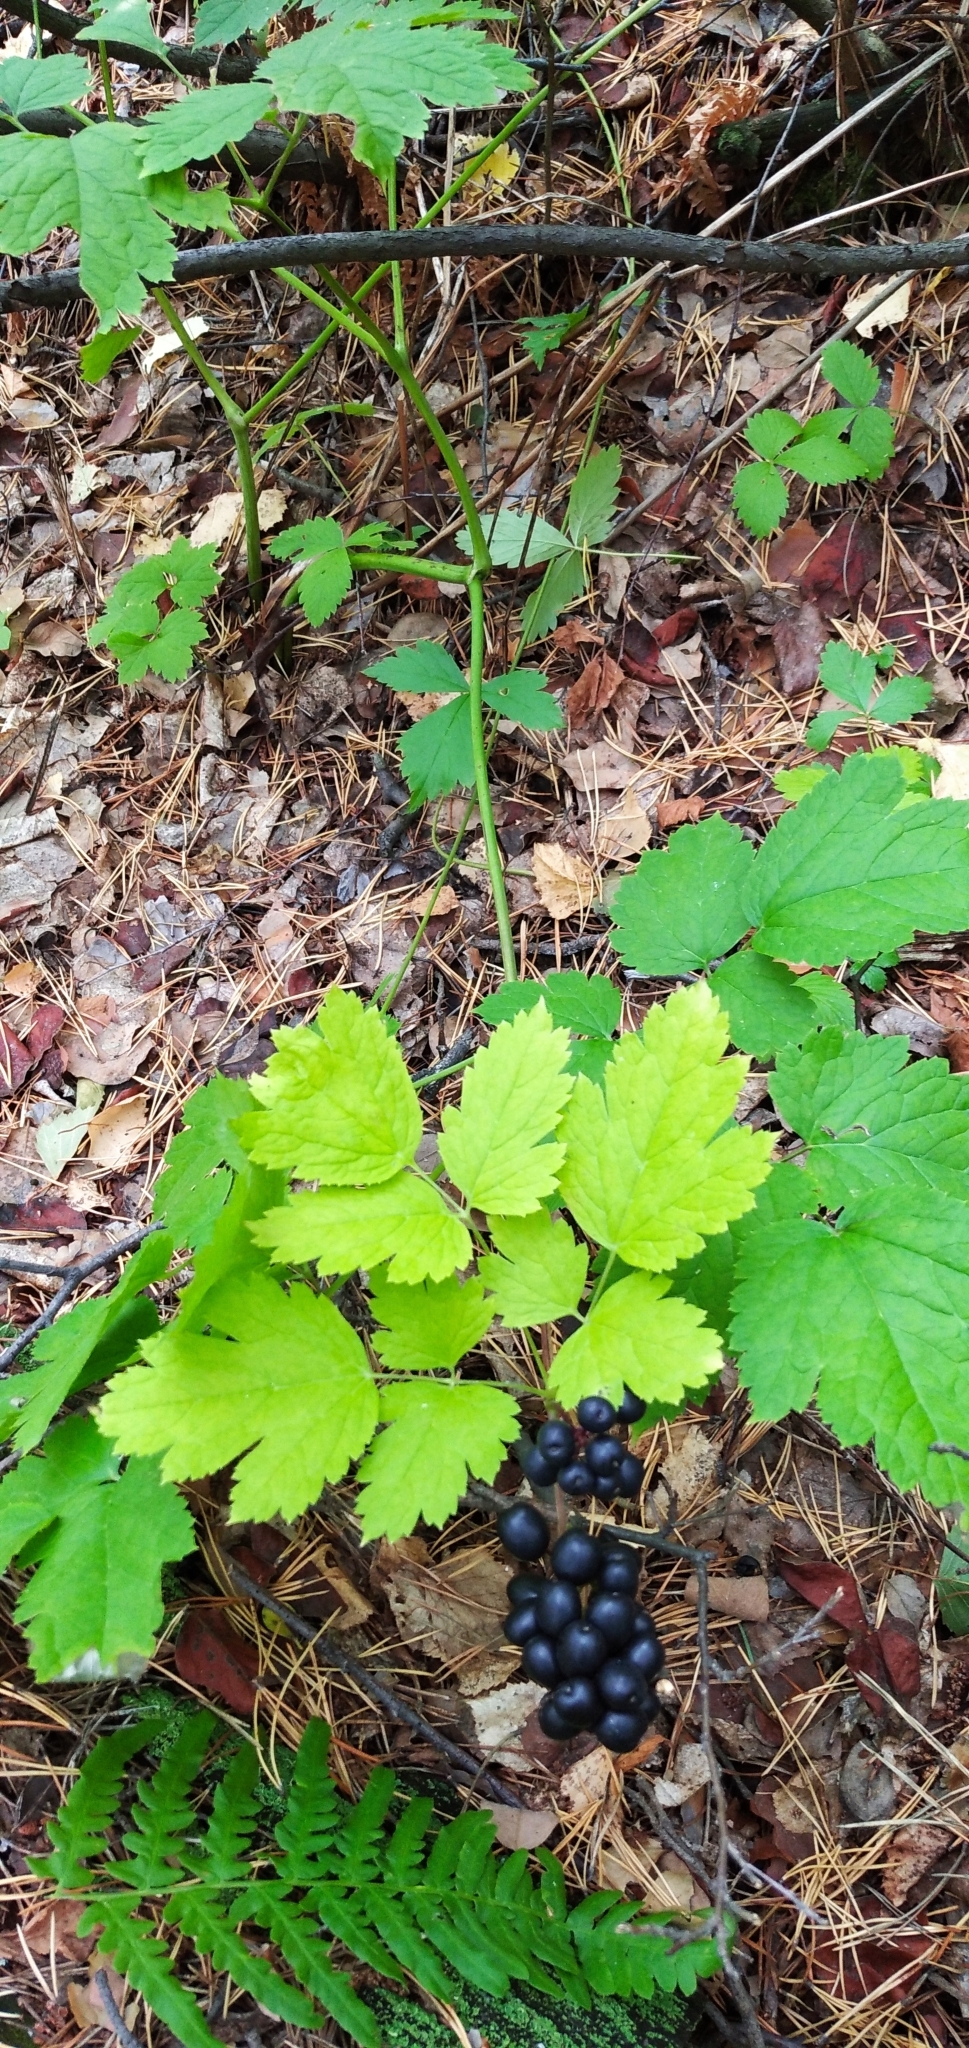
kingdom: Plantae
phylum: Tracheophyta
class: Magnoliopsida
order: Ranunculales
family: Ranunculaceae
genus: Actaea
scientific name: Actaea spicata
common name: Baneberry
